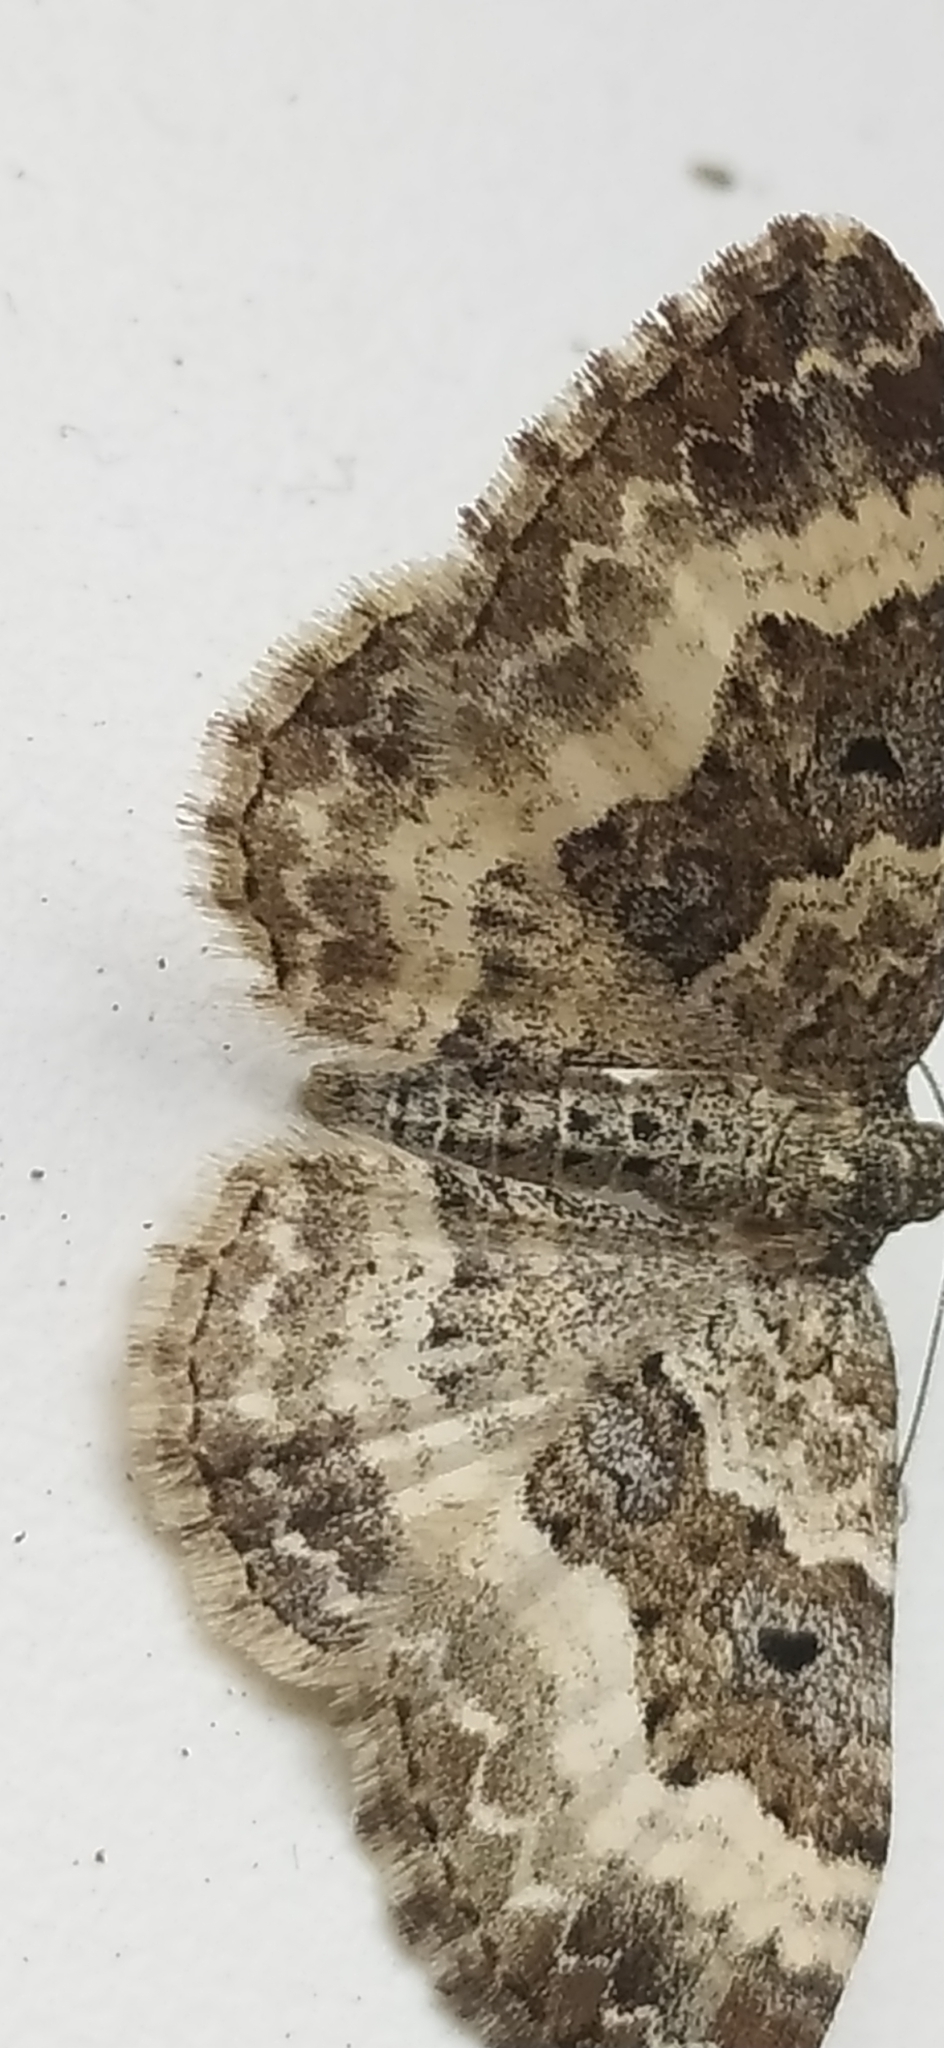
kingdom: Animalia
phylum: Arthropoda
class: Insecta
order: Lepidoptera
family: Geometridae
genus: Epirrhoe
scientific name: Epirrhoe alternata
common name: Common carpet
